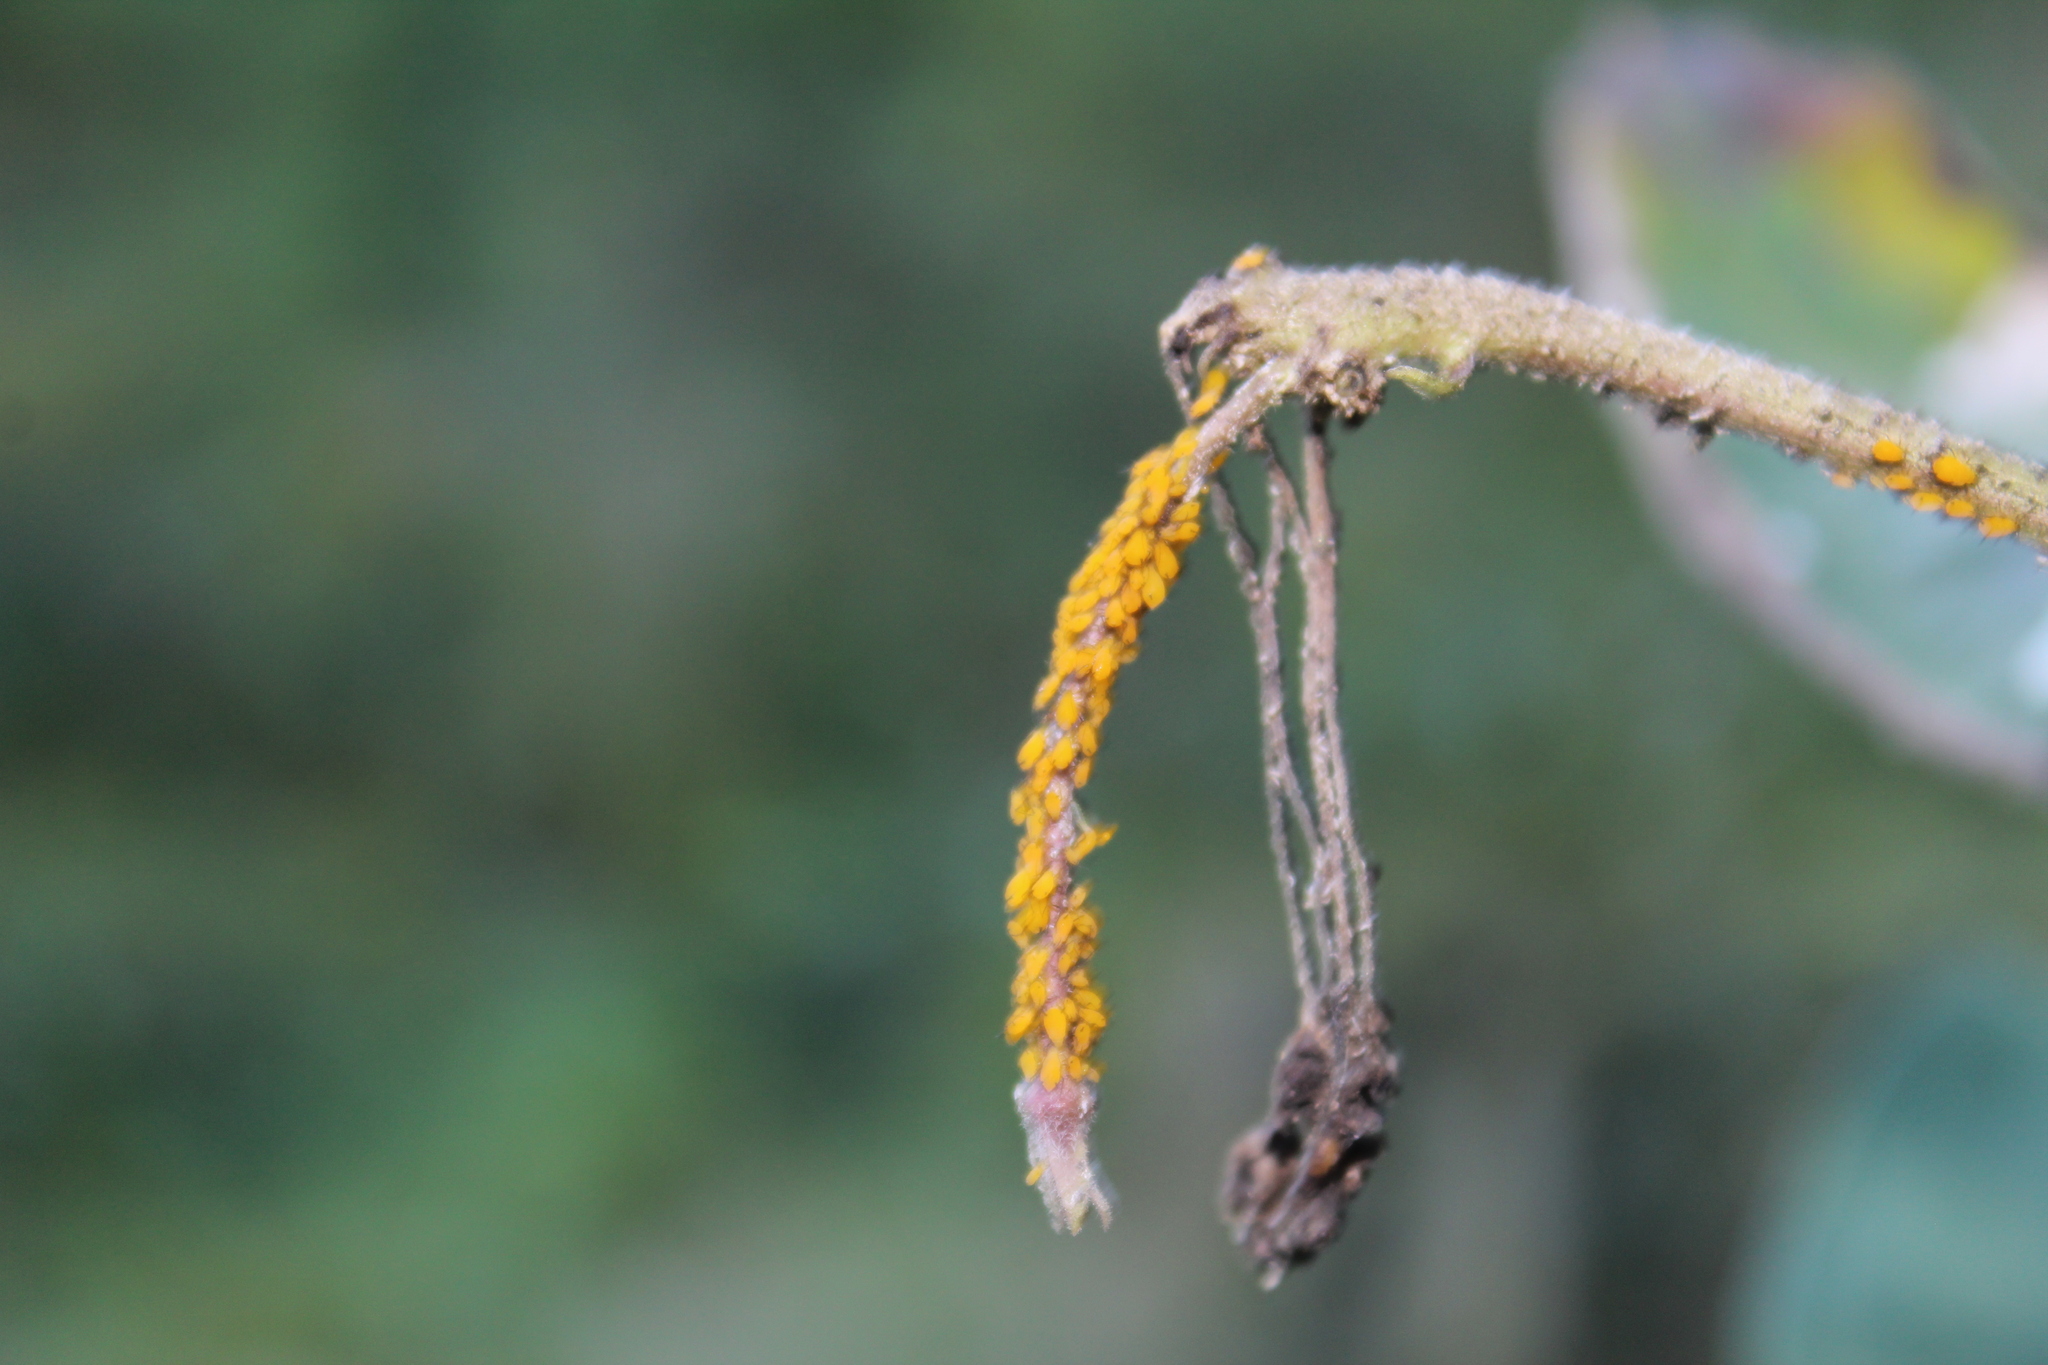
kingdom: Animalia
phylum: Arthropoda
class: Insecta
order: Hemiptera
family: Aphididae
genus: Aphis
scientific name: Aphis nerii
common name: Oleander aphid
